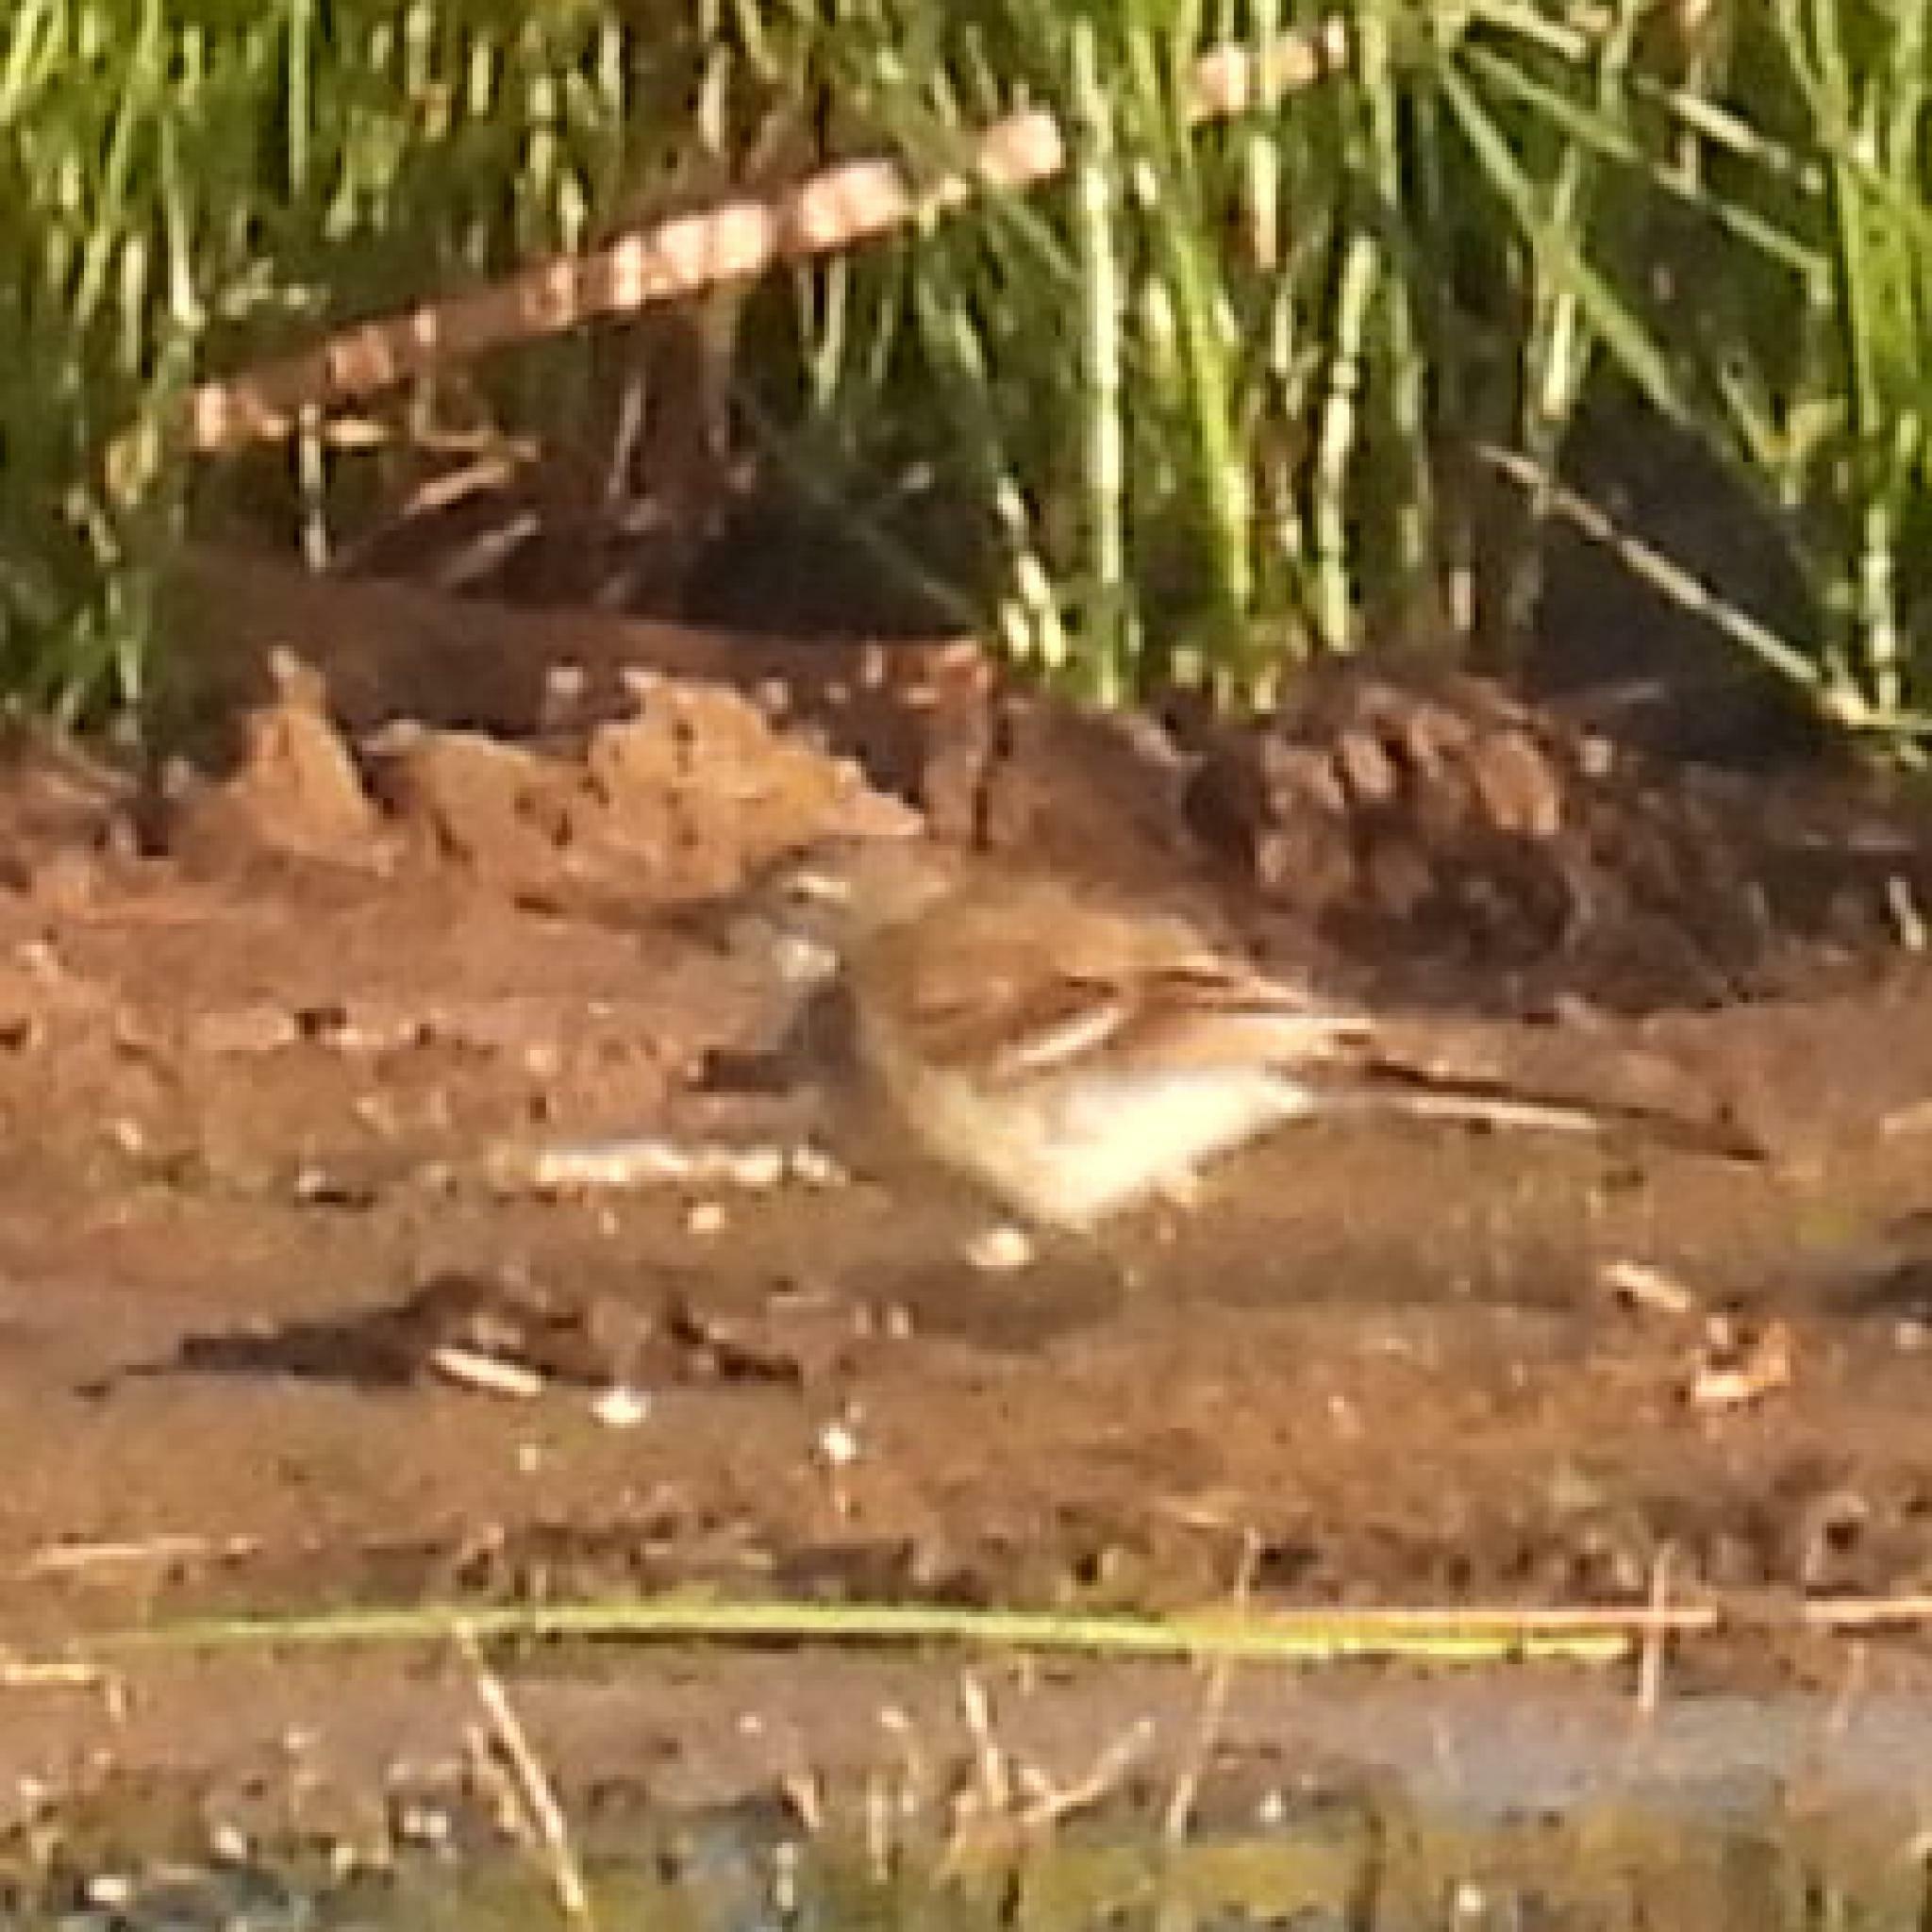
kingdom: Animalia
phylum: Chordata
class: Aves
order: Passeriformes
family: Motacillidae
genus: Motacilla
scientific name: Motacilla capensis
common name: Cape wagtail
